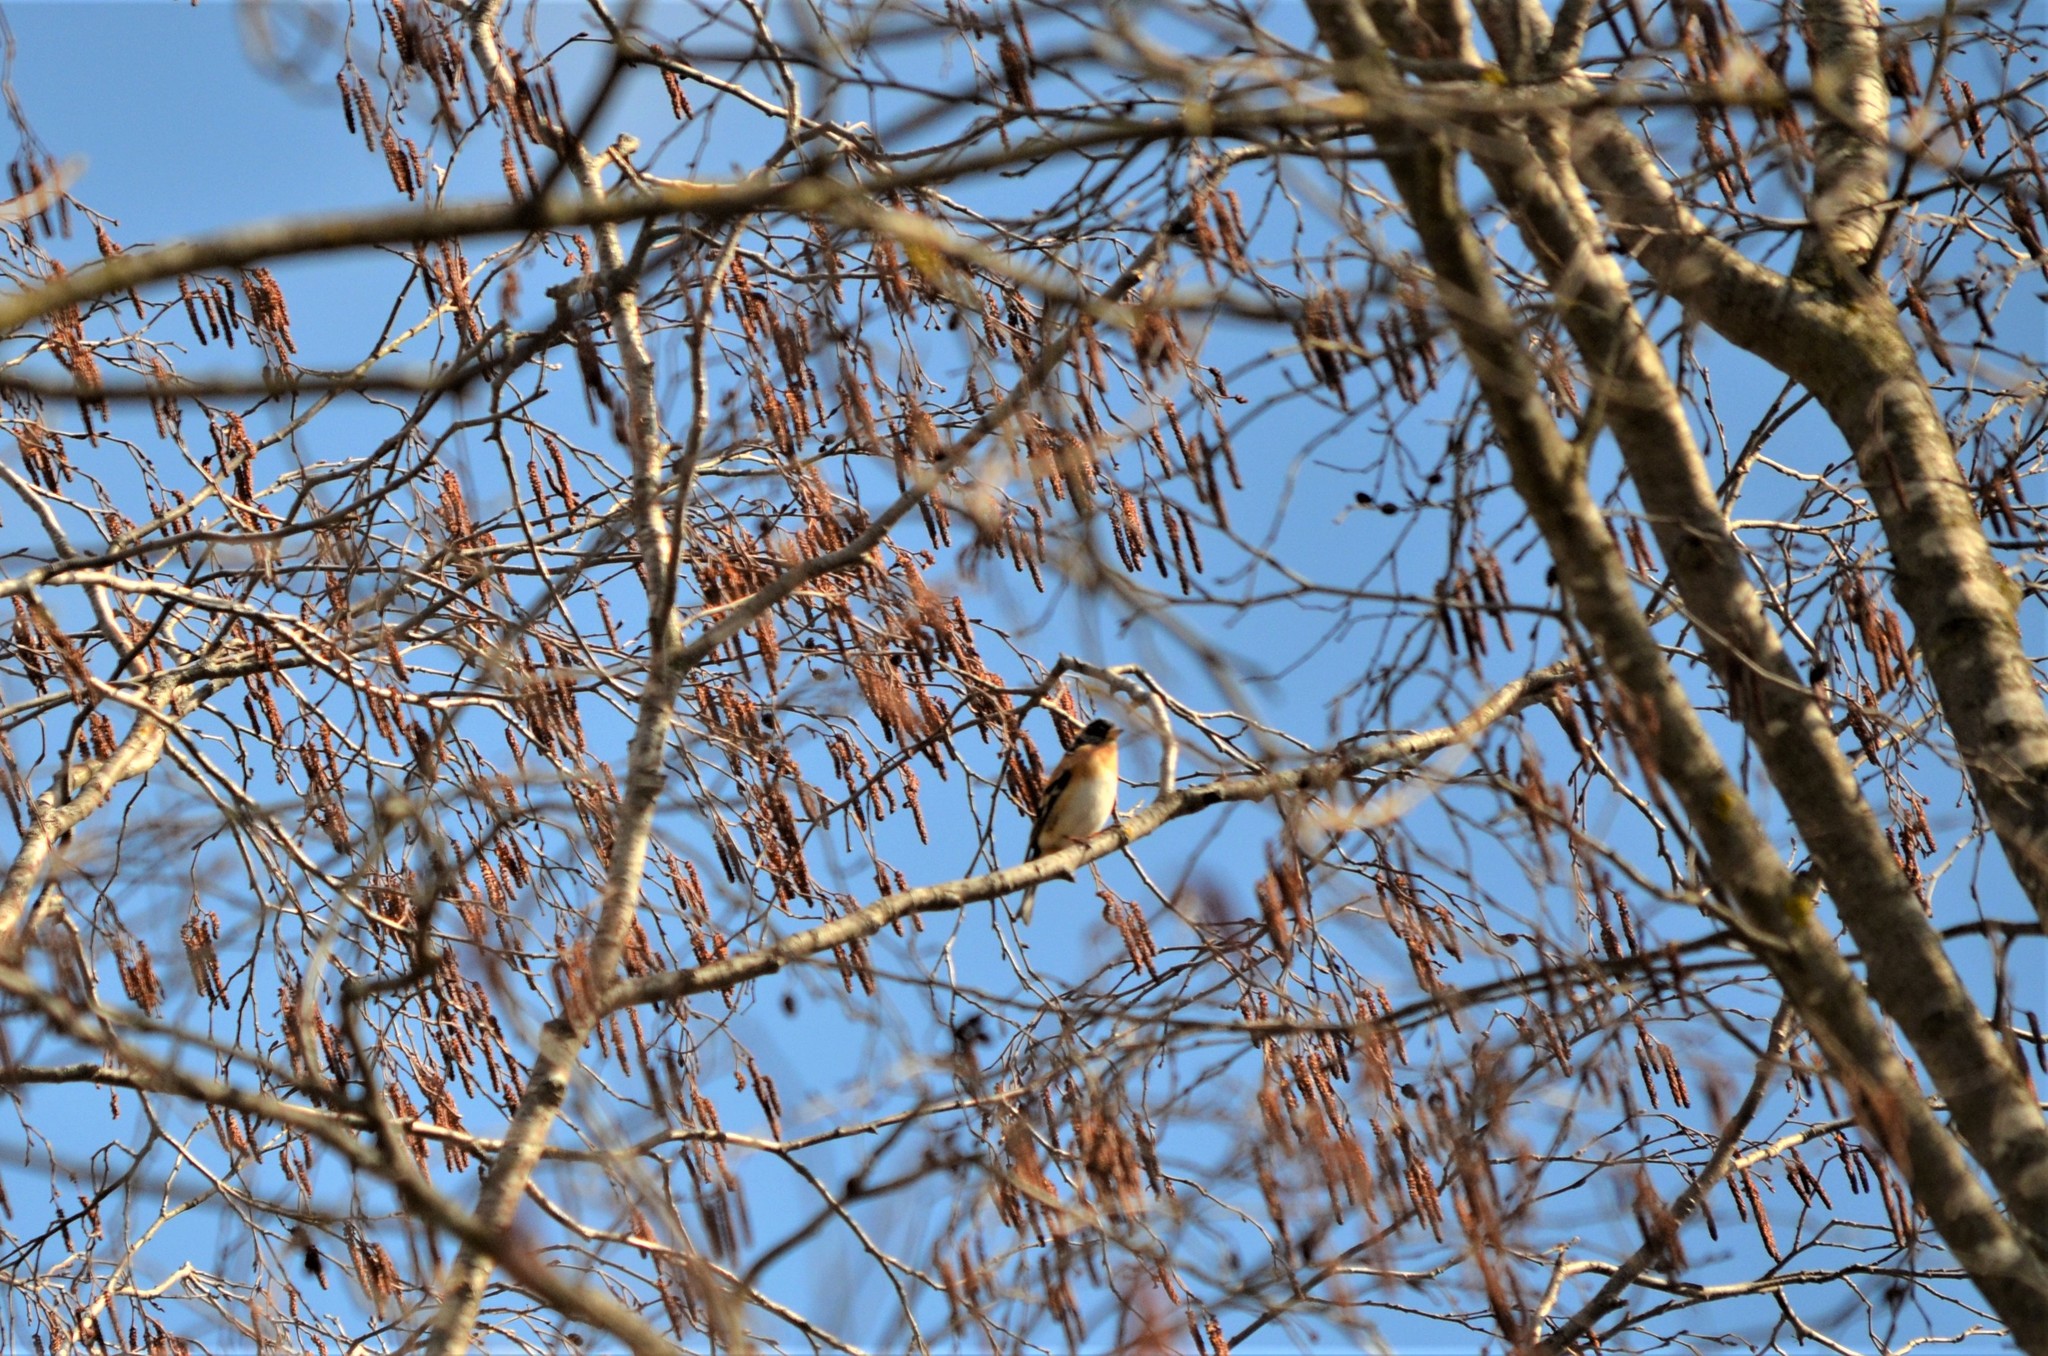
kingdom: Animalia
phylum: Chordata
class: Aves
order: Passeriformes
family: Fringillidae
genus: Fringilla
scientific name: Fringilla montifringilla
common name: Brambling
